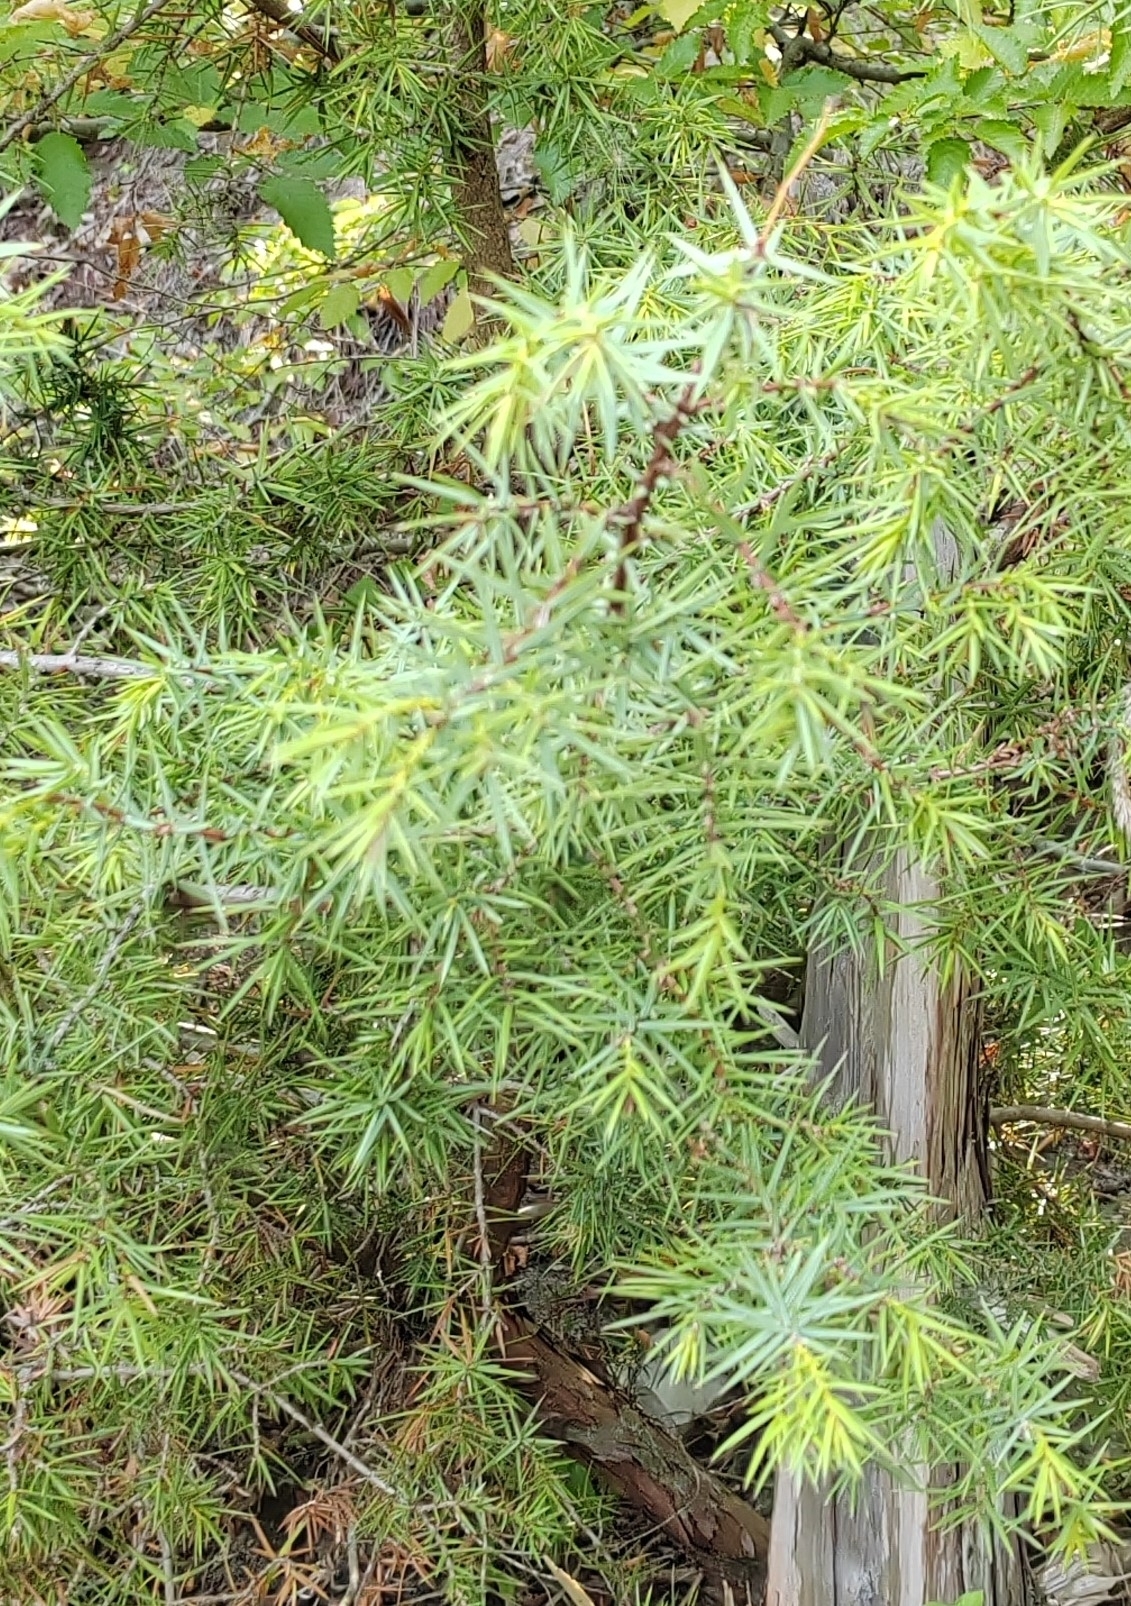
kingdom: Plantae
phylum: Tracheophyta
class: Pinopsida
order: Pinales
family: Cupressaceae
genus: Juniperus
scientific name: Juniperus oxycedrus
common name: Prickly juniper
